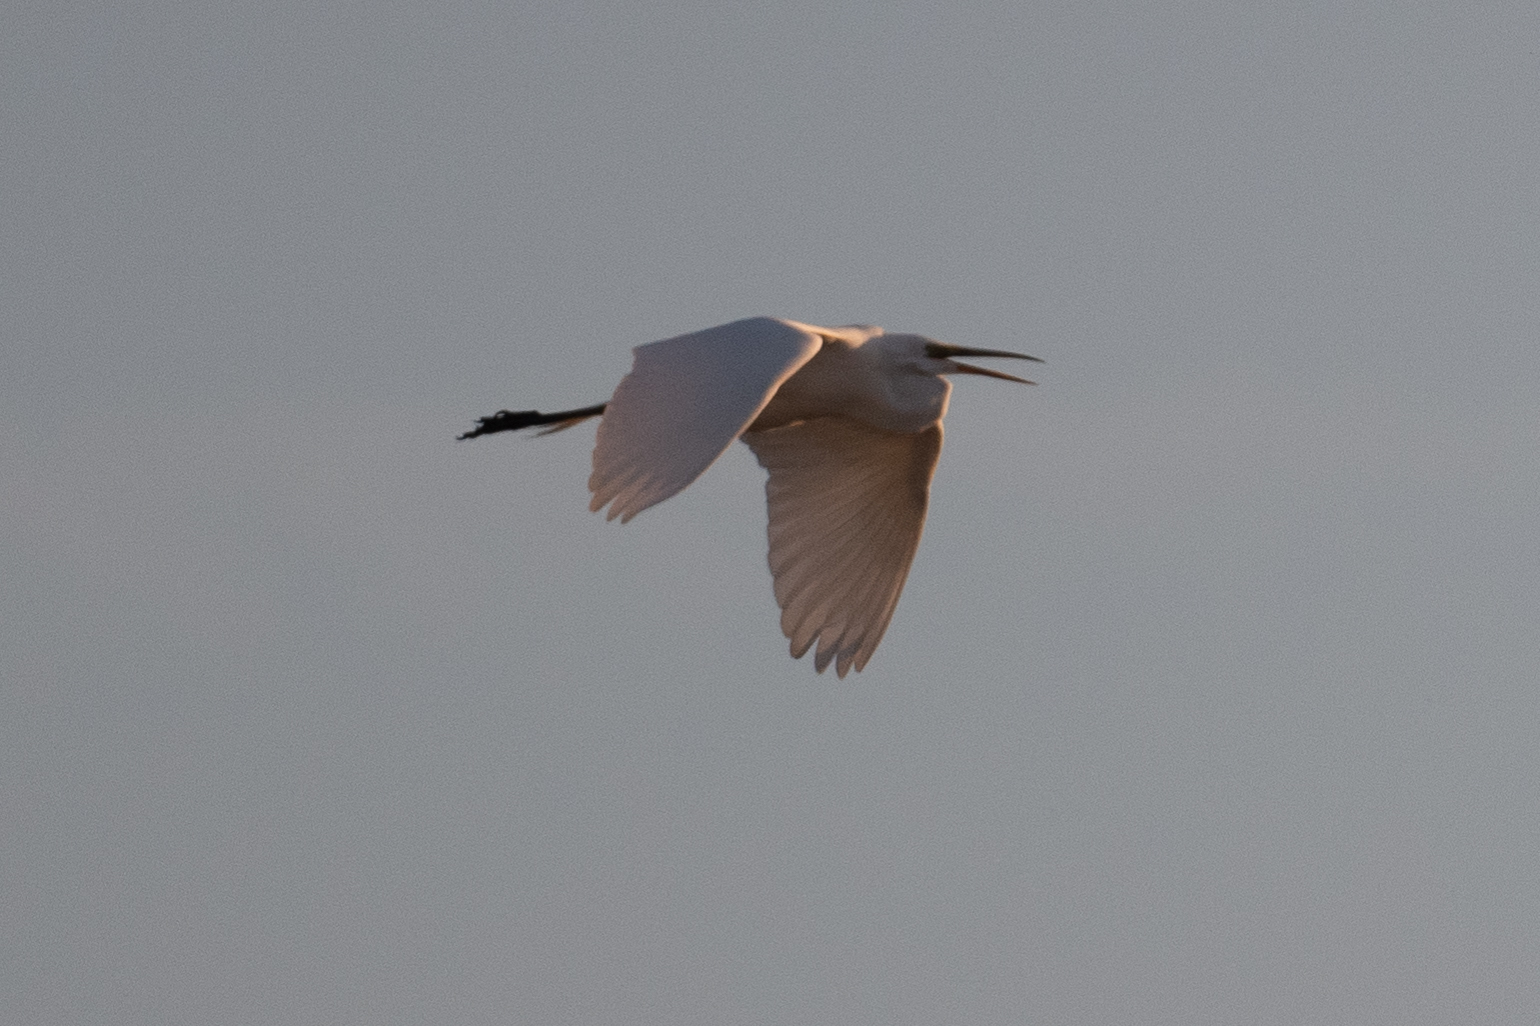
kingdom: Animalia
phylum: Chordata
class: Aves
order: Pelecaniformes
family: Ardeidae
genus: Ardea
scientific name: Ardea alba
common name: Great egret
